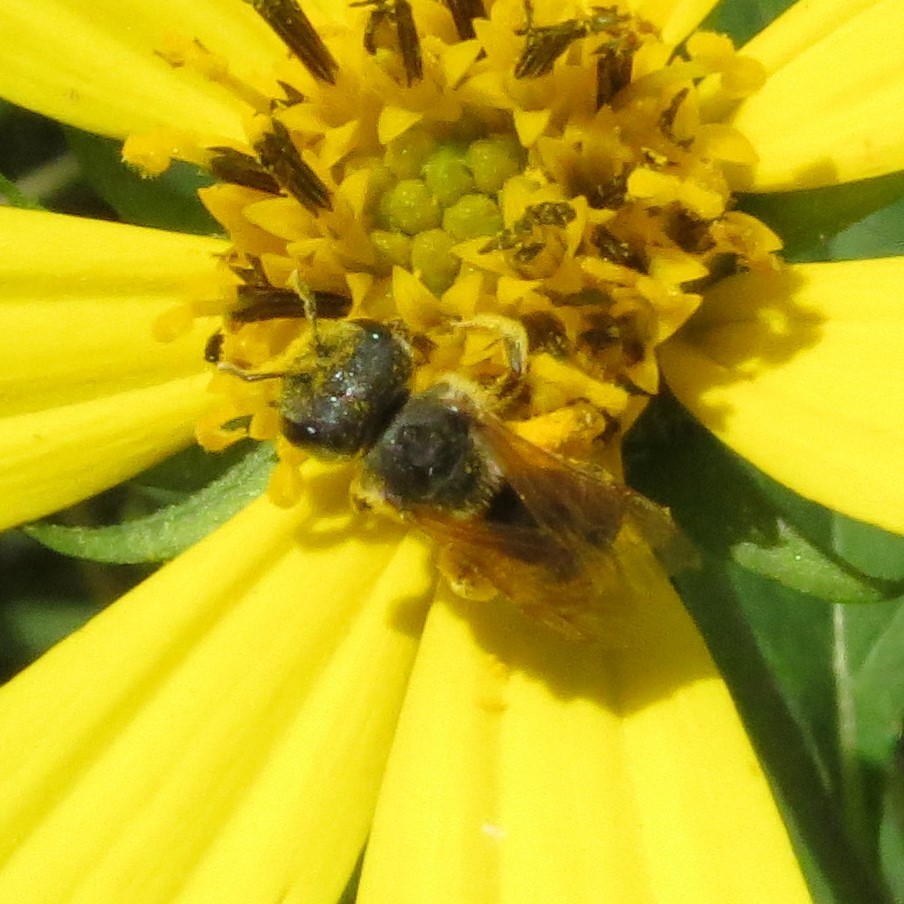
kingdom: Animalia
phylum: Arthropoda
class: Insecta
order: Hymenoptera
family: Halictidae
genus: Halictus
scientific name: Halictus ligatus
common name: Ligated furrow bee
